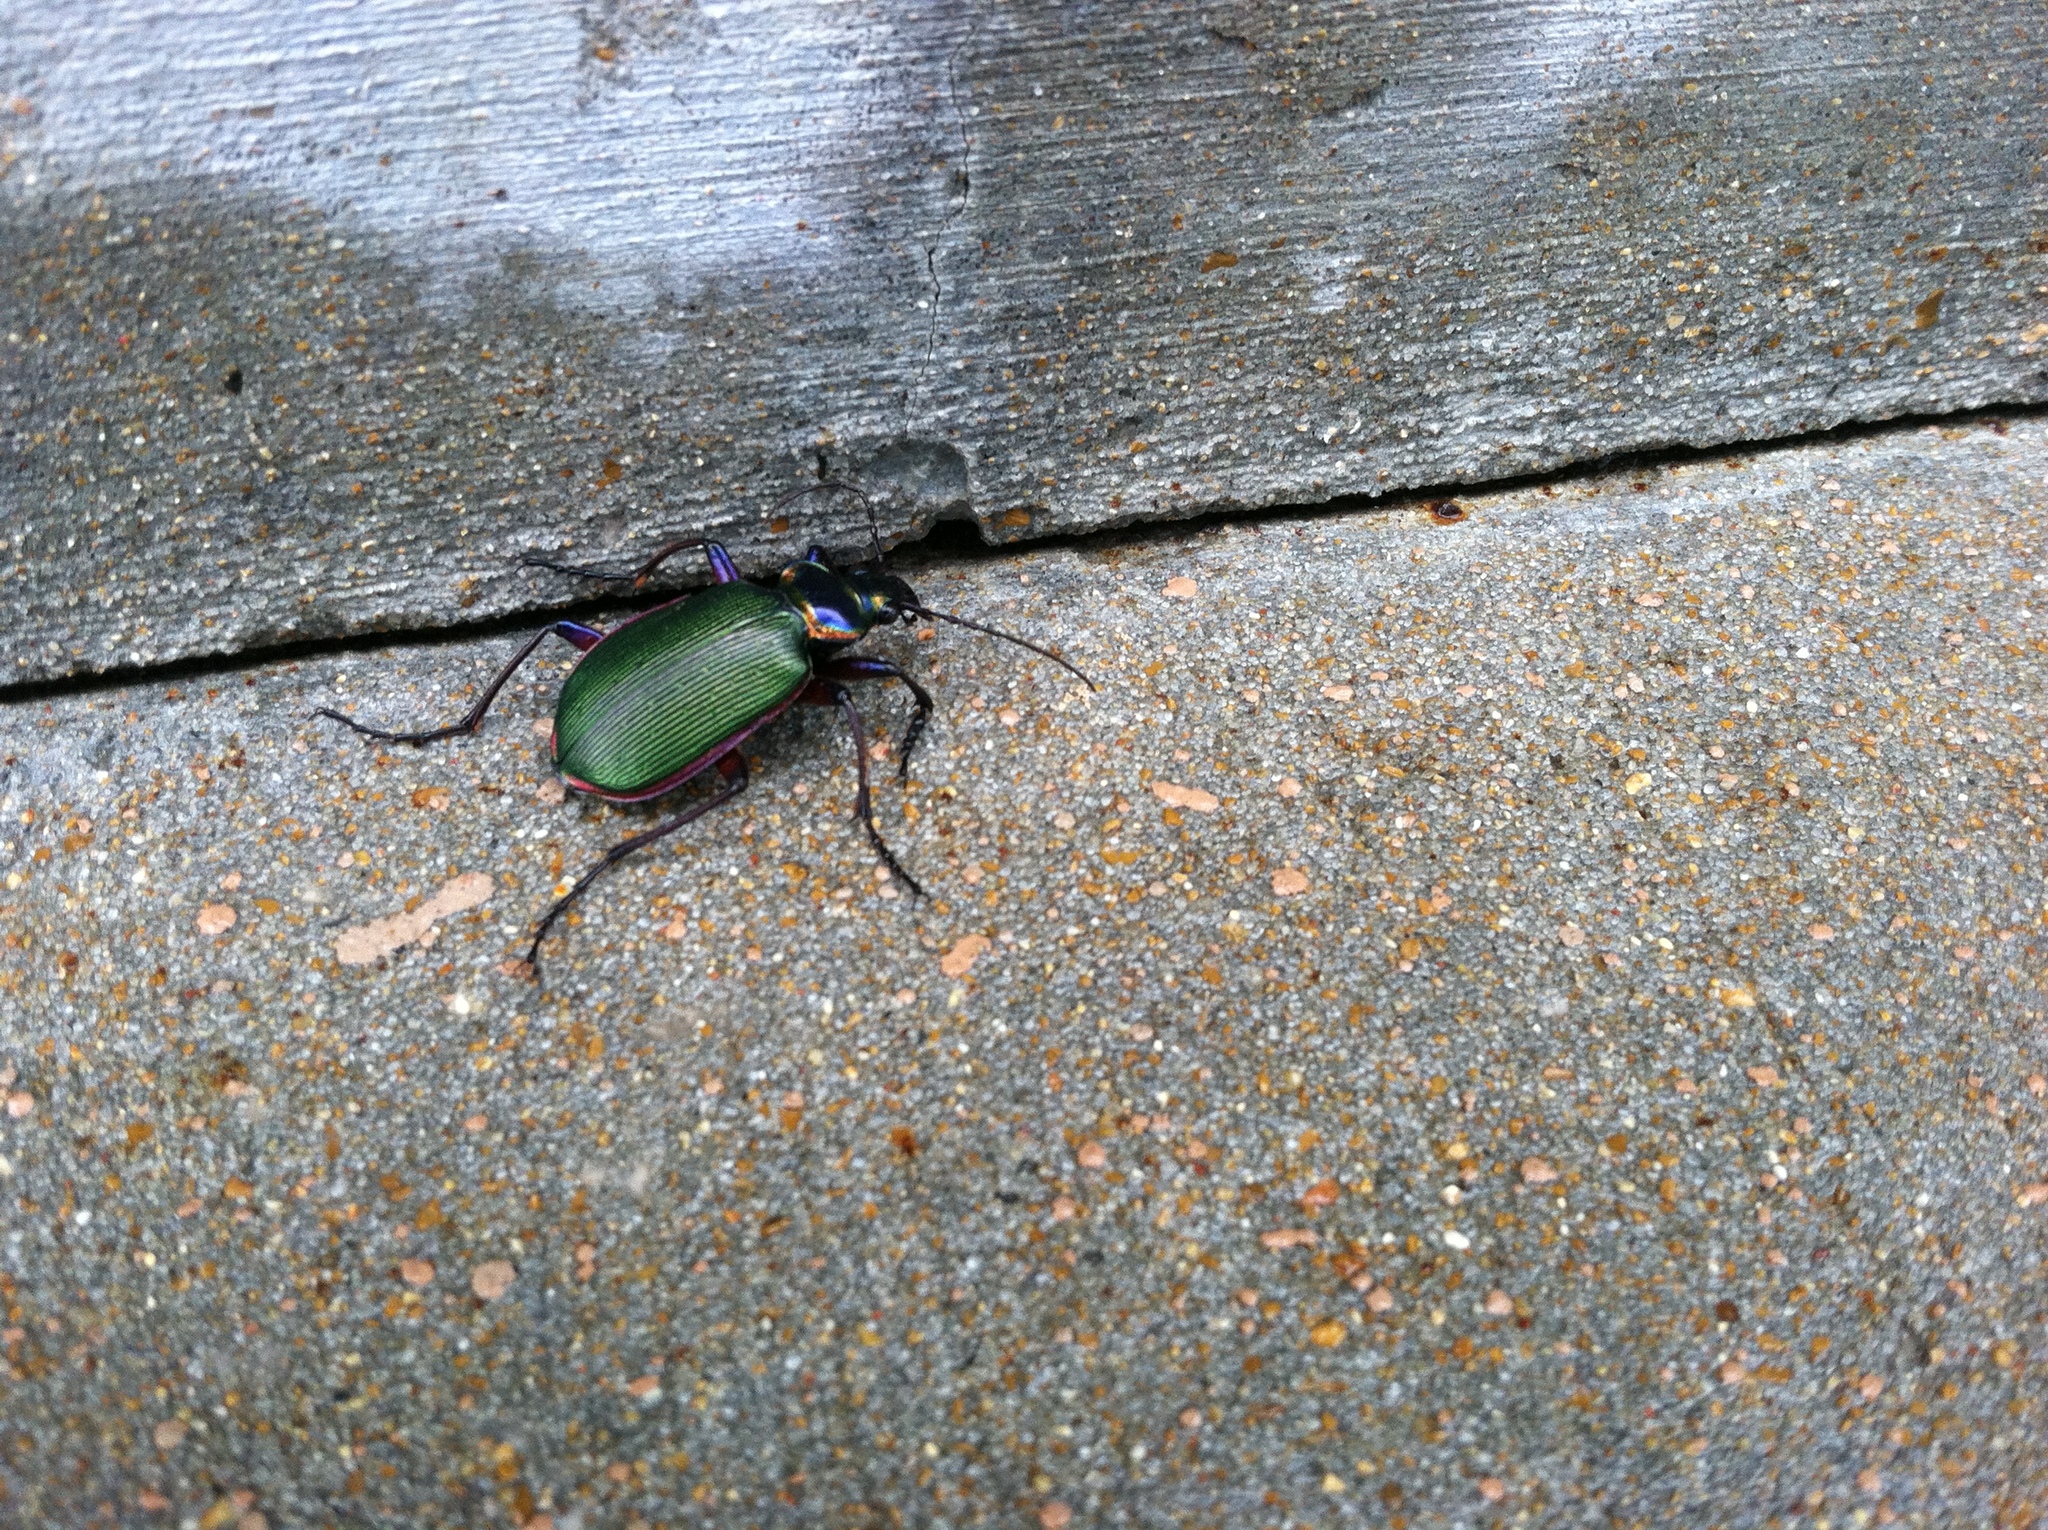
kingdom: Animalia
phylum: Arthropoda
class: Insecta
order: Coleoptera
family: Carabidae
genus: Calosoma
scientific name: Calosoma scrutator
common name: Fiery searcher beetle
